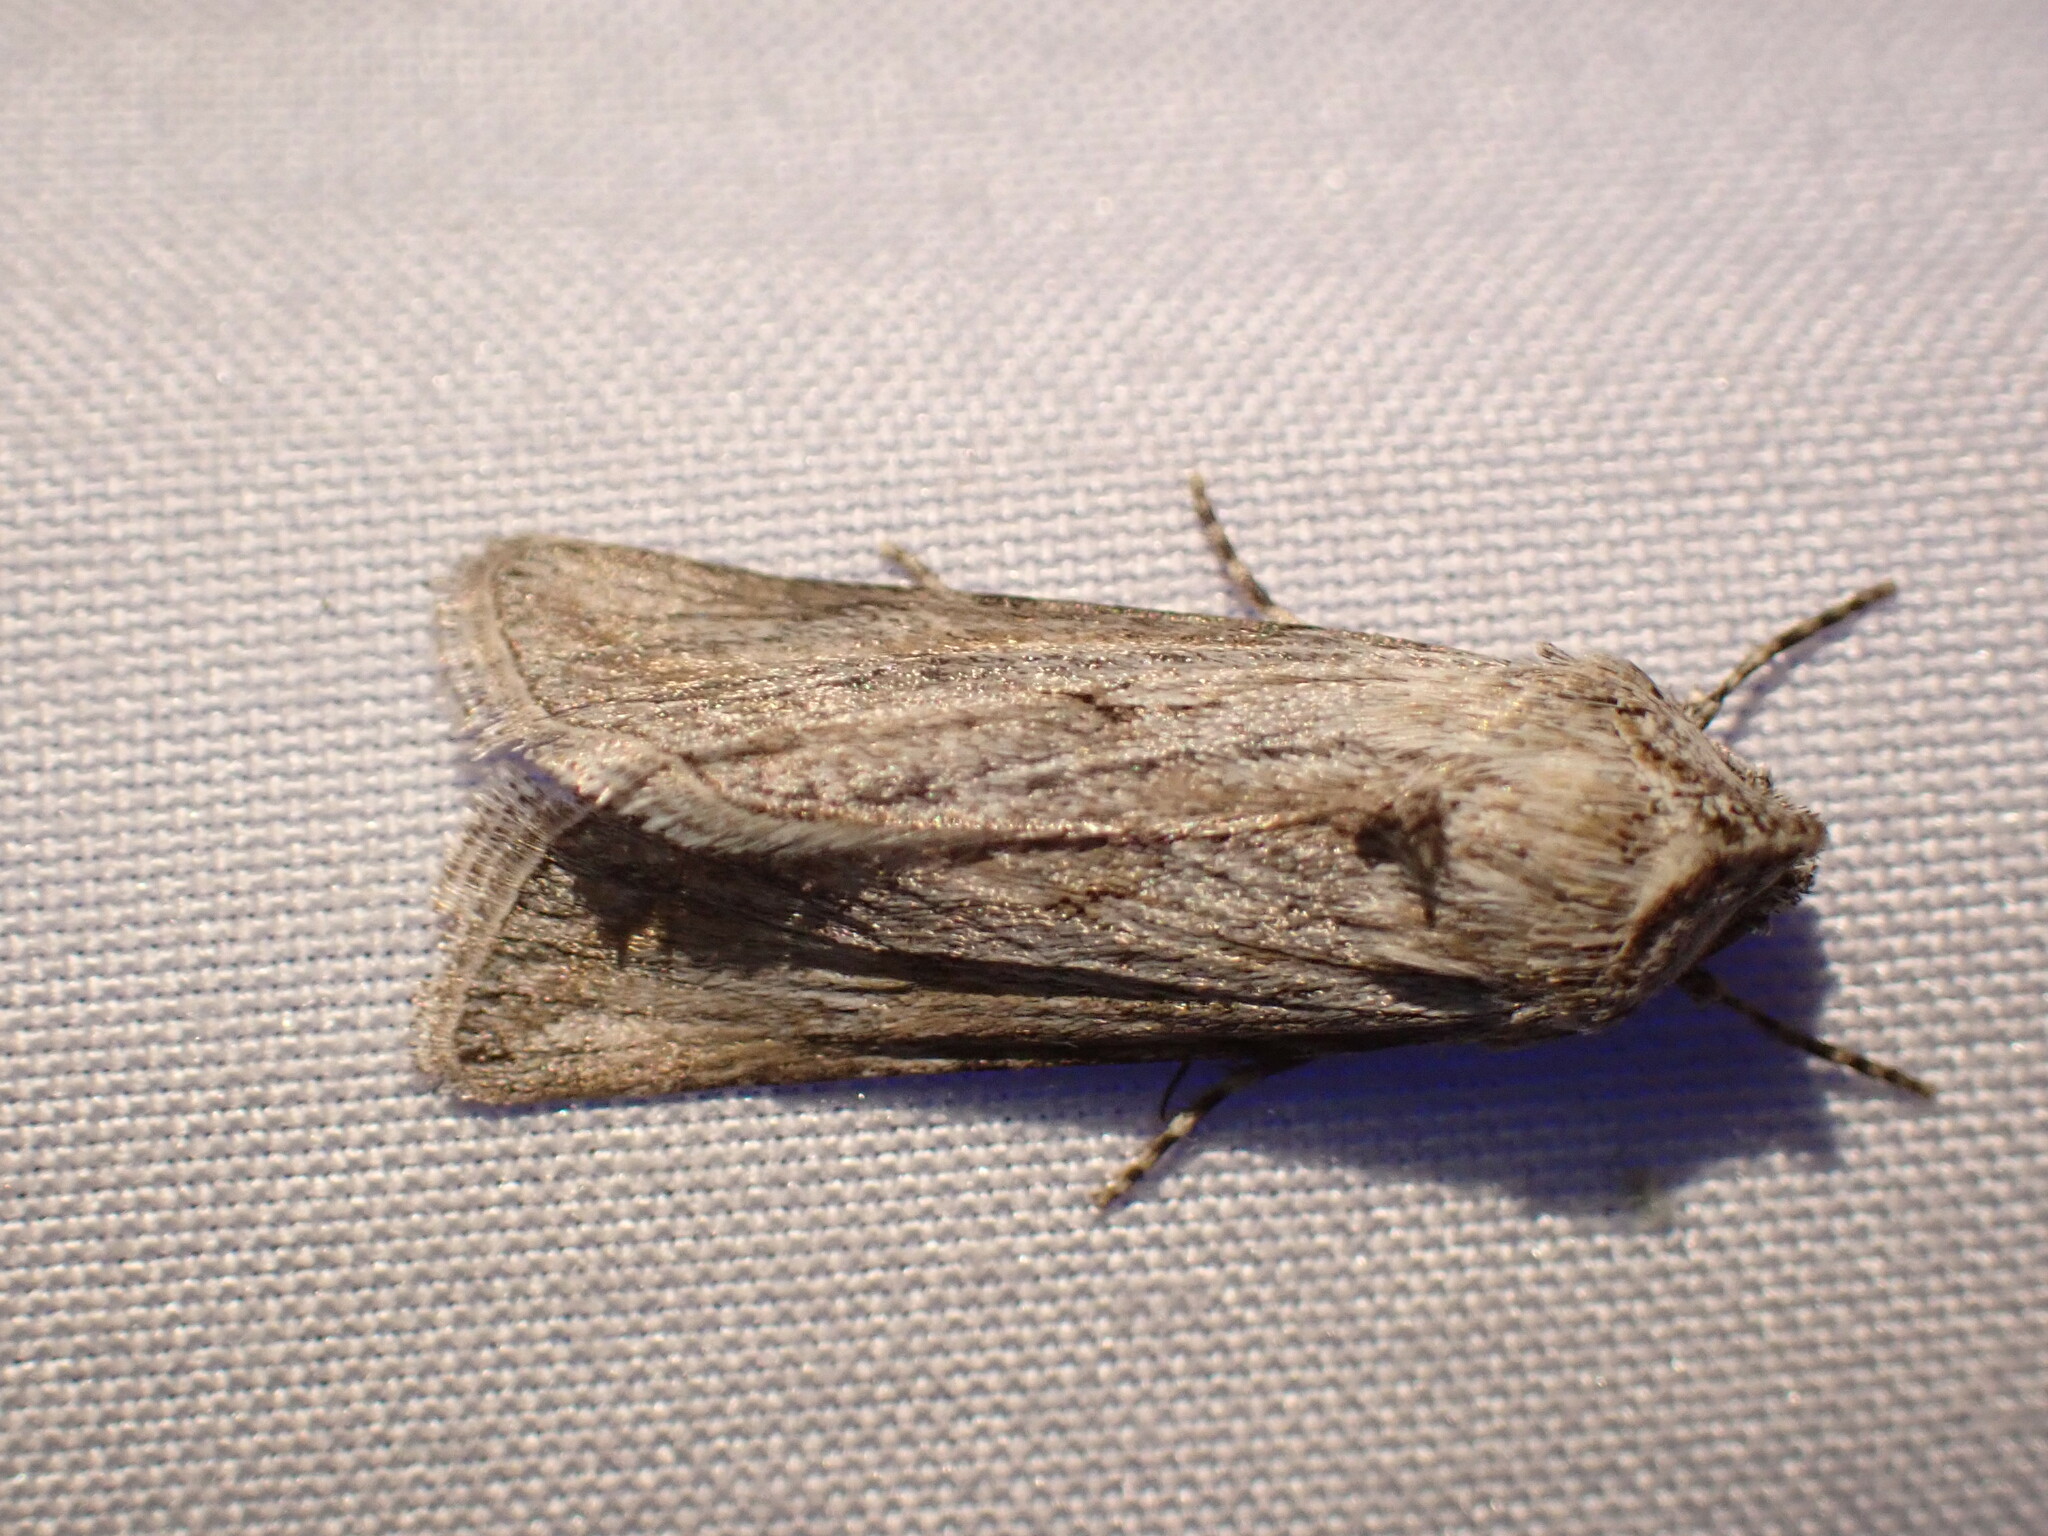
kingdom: Animalia
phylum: Arthropoda
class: Insecta
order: Lepidoptera
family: Noctuidae
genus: Sympistis
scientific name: Sympistis cibalis
